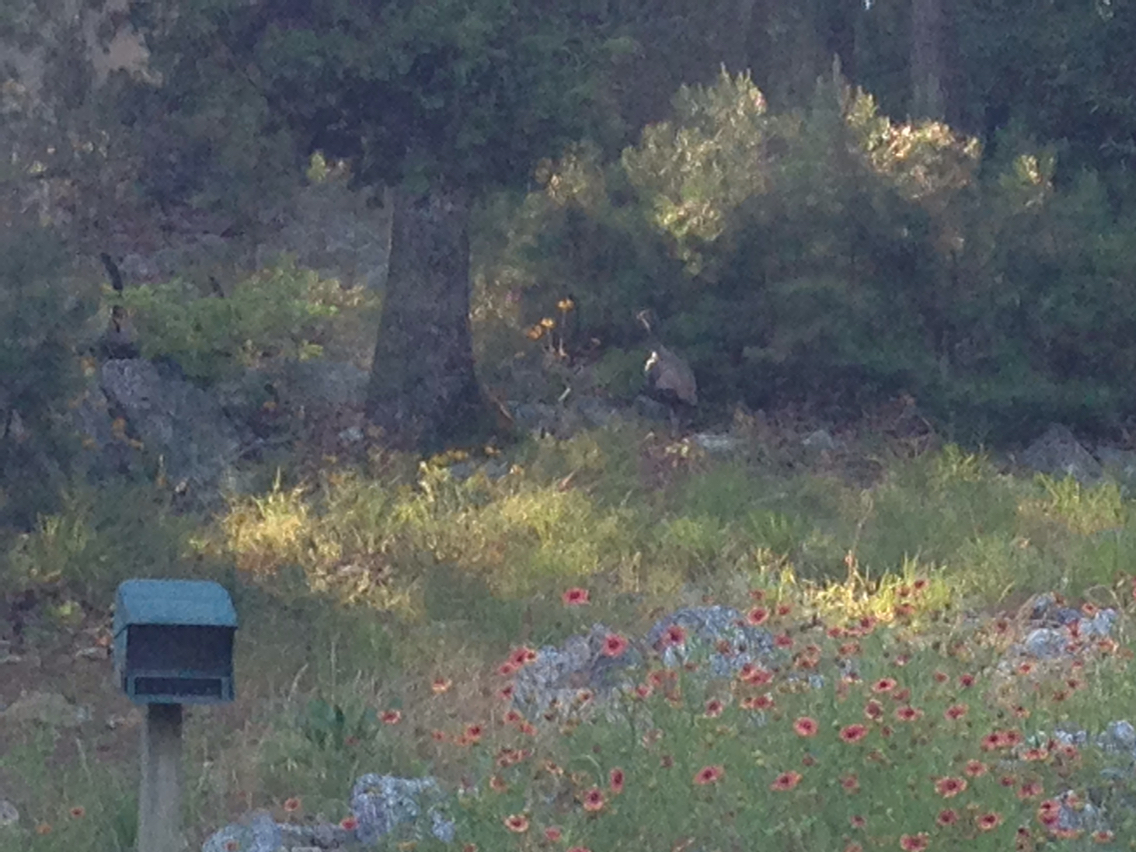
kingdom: Animalia
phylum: Chordata
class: Aves
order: Galliformes
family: Phasianidae
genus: Meleagris
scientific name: Meleagris gallopavo
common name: Wild turkey
